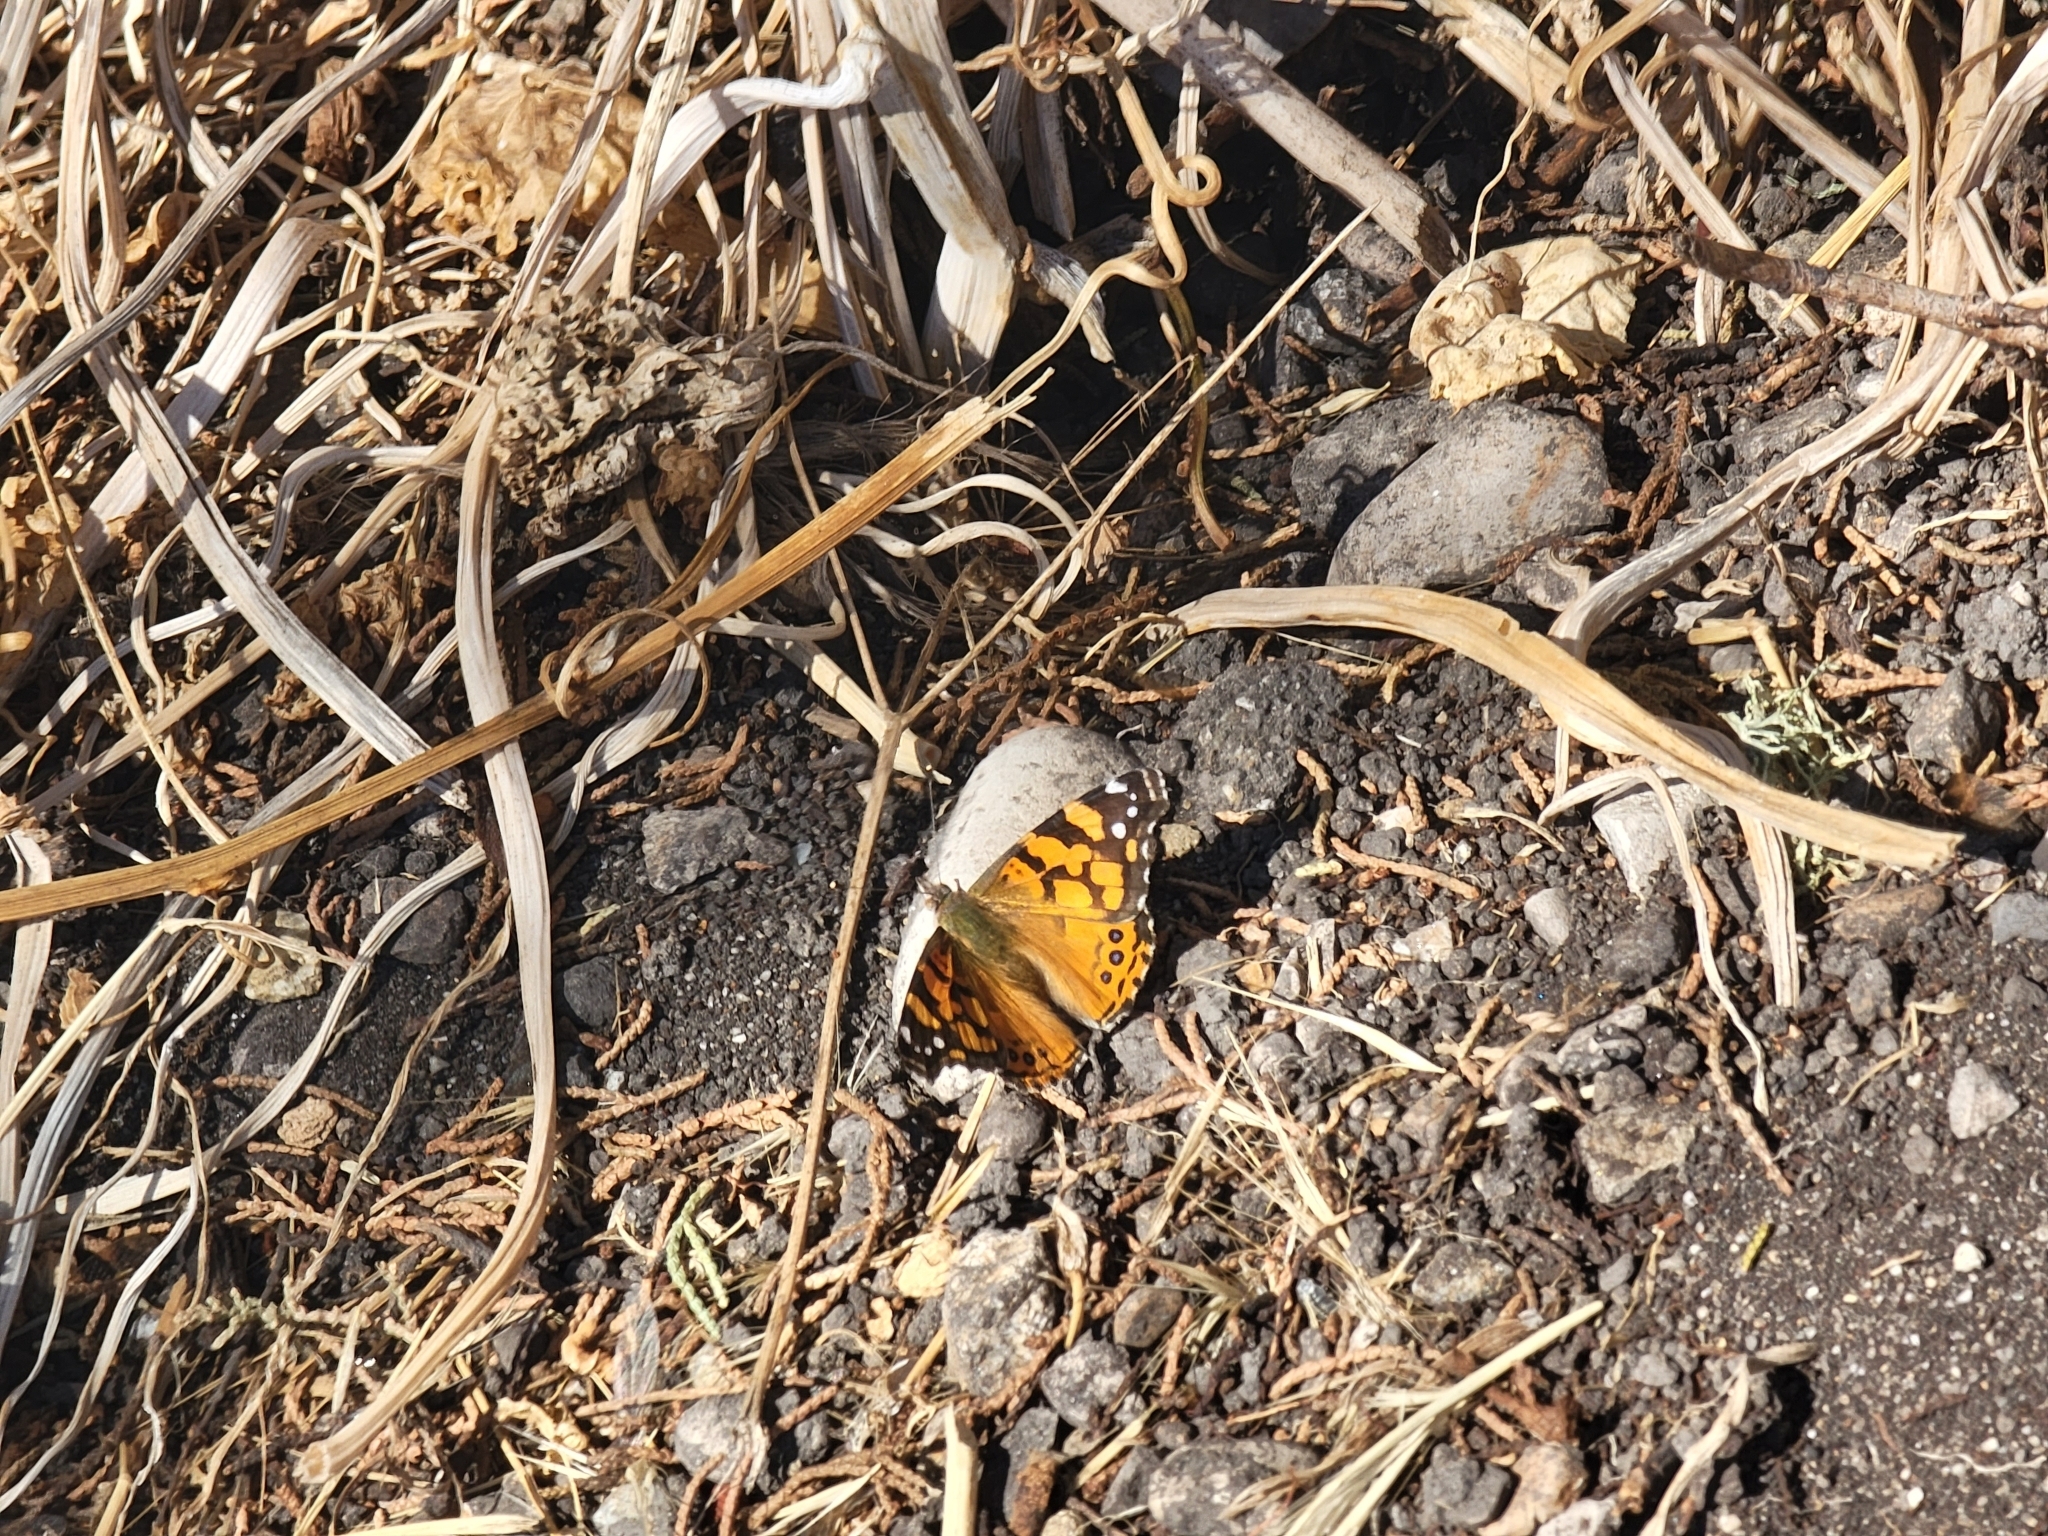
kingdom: Animalia
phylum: Arthropoda
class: Insecta
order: Lepidoptera
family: Nymphalidae
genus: Vanessa
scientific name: Vanessa annabella
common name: West coast lady
